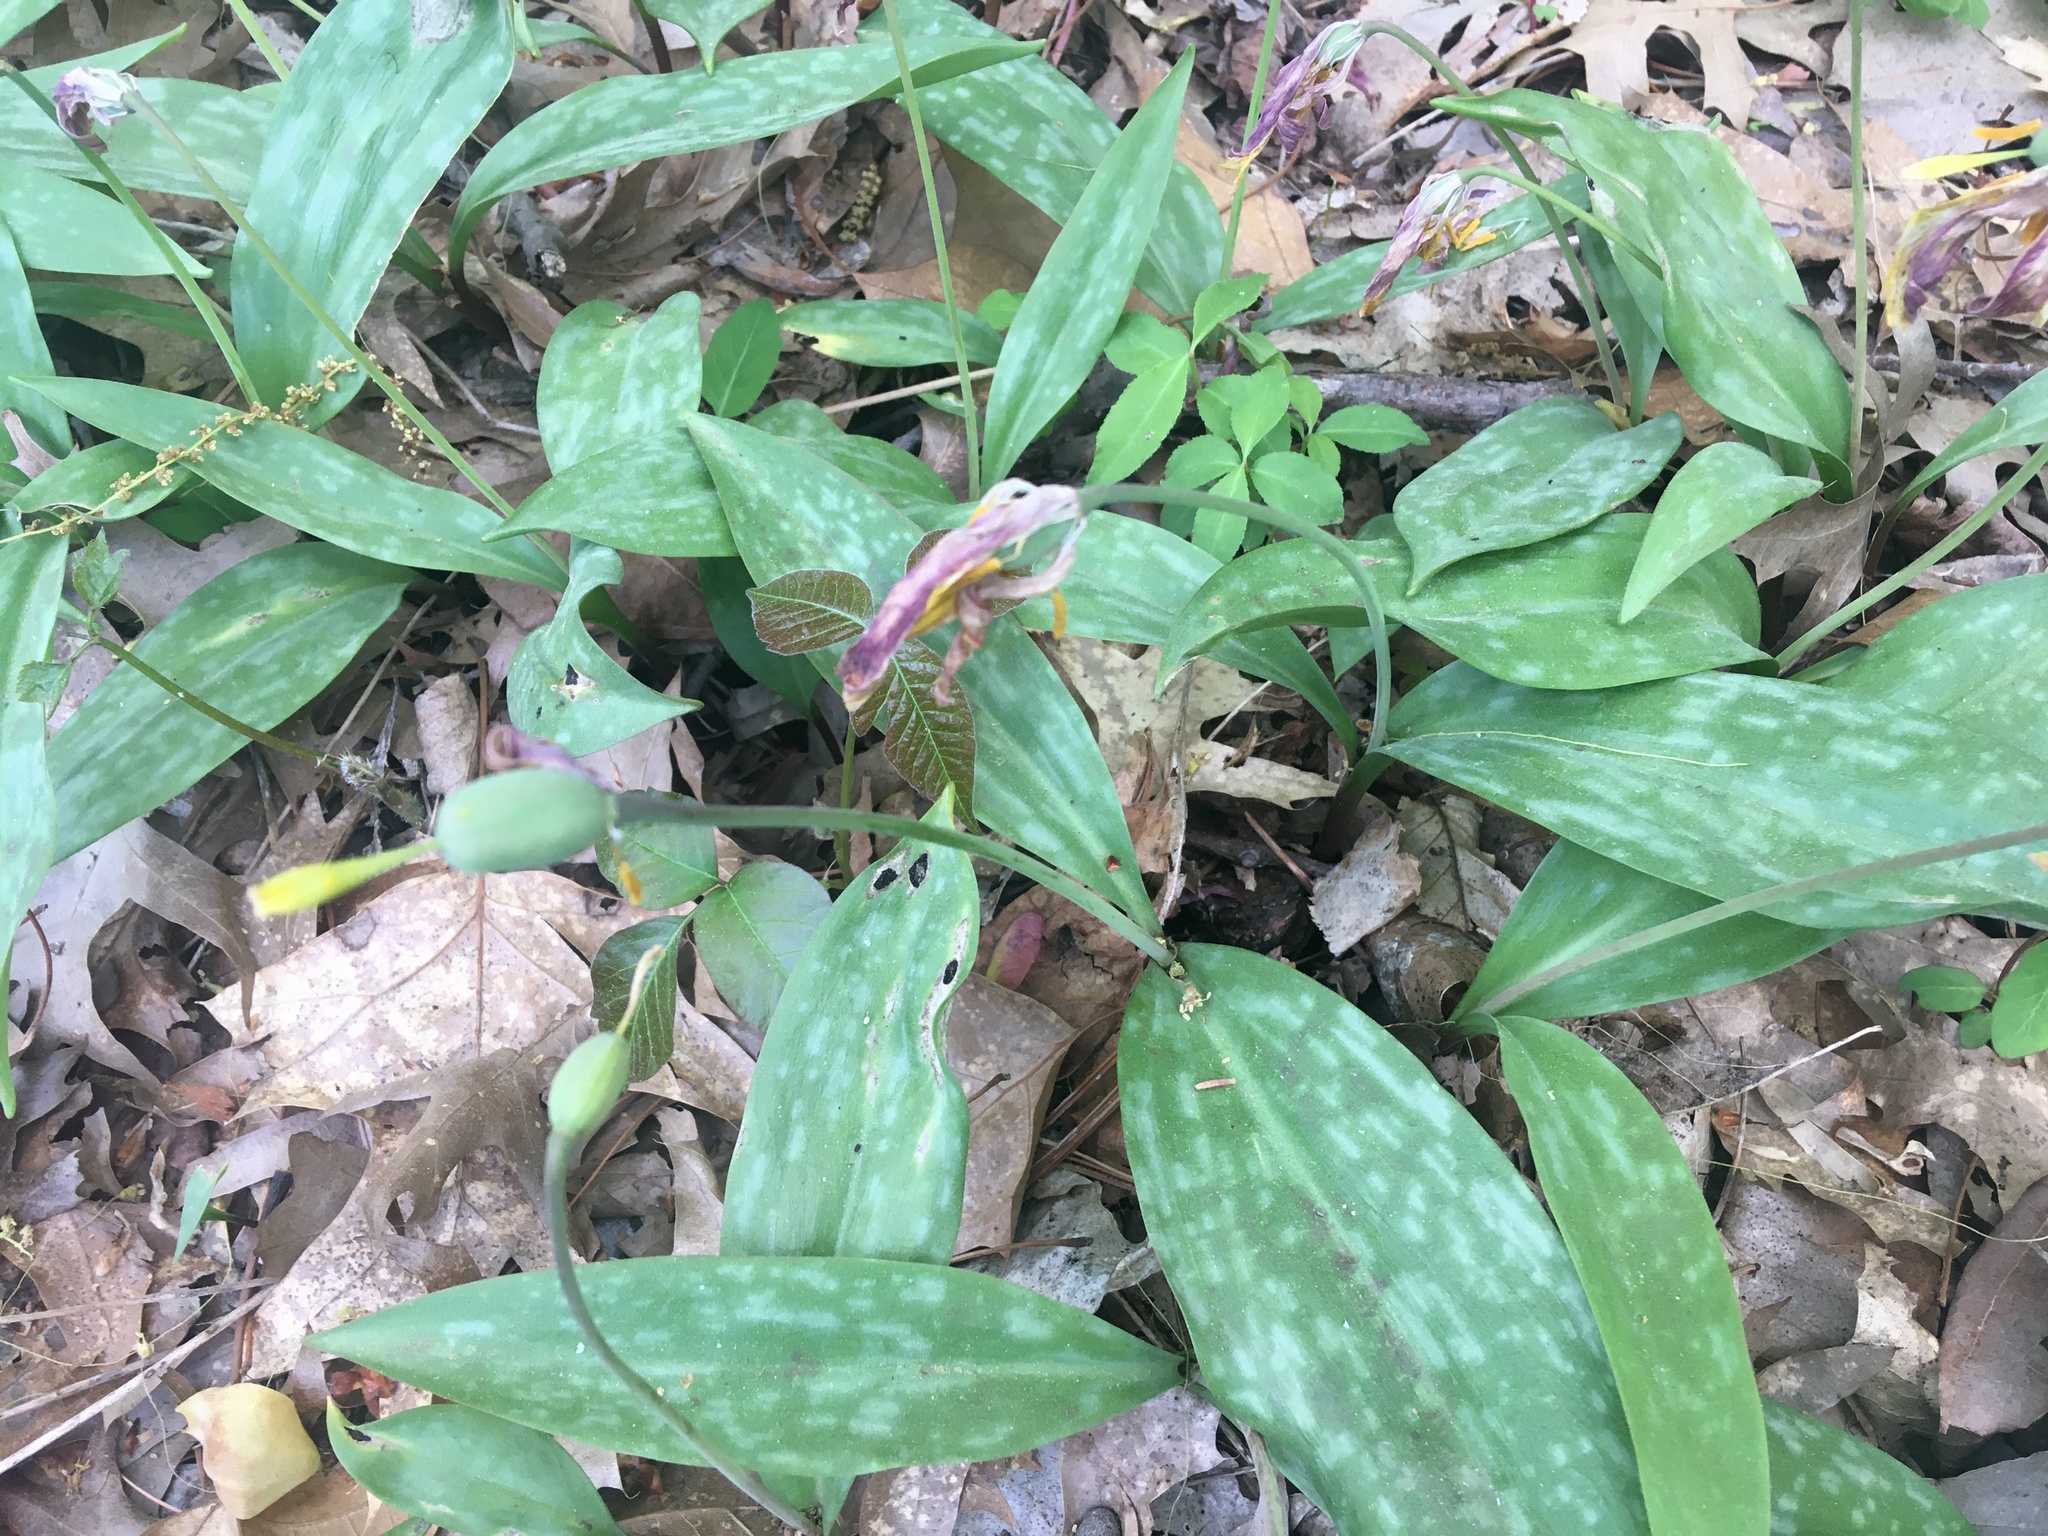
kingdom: Plantae
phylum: Tracheophyta
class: Liliopsida
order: Liliales
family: Liliaceae
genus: Erythronium
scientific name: Erythronium americanum
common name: Yellow adder's-tongue
